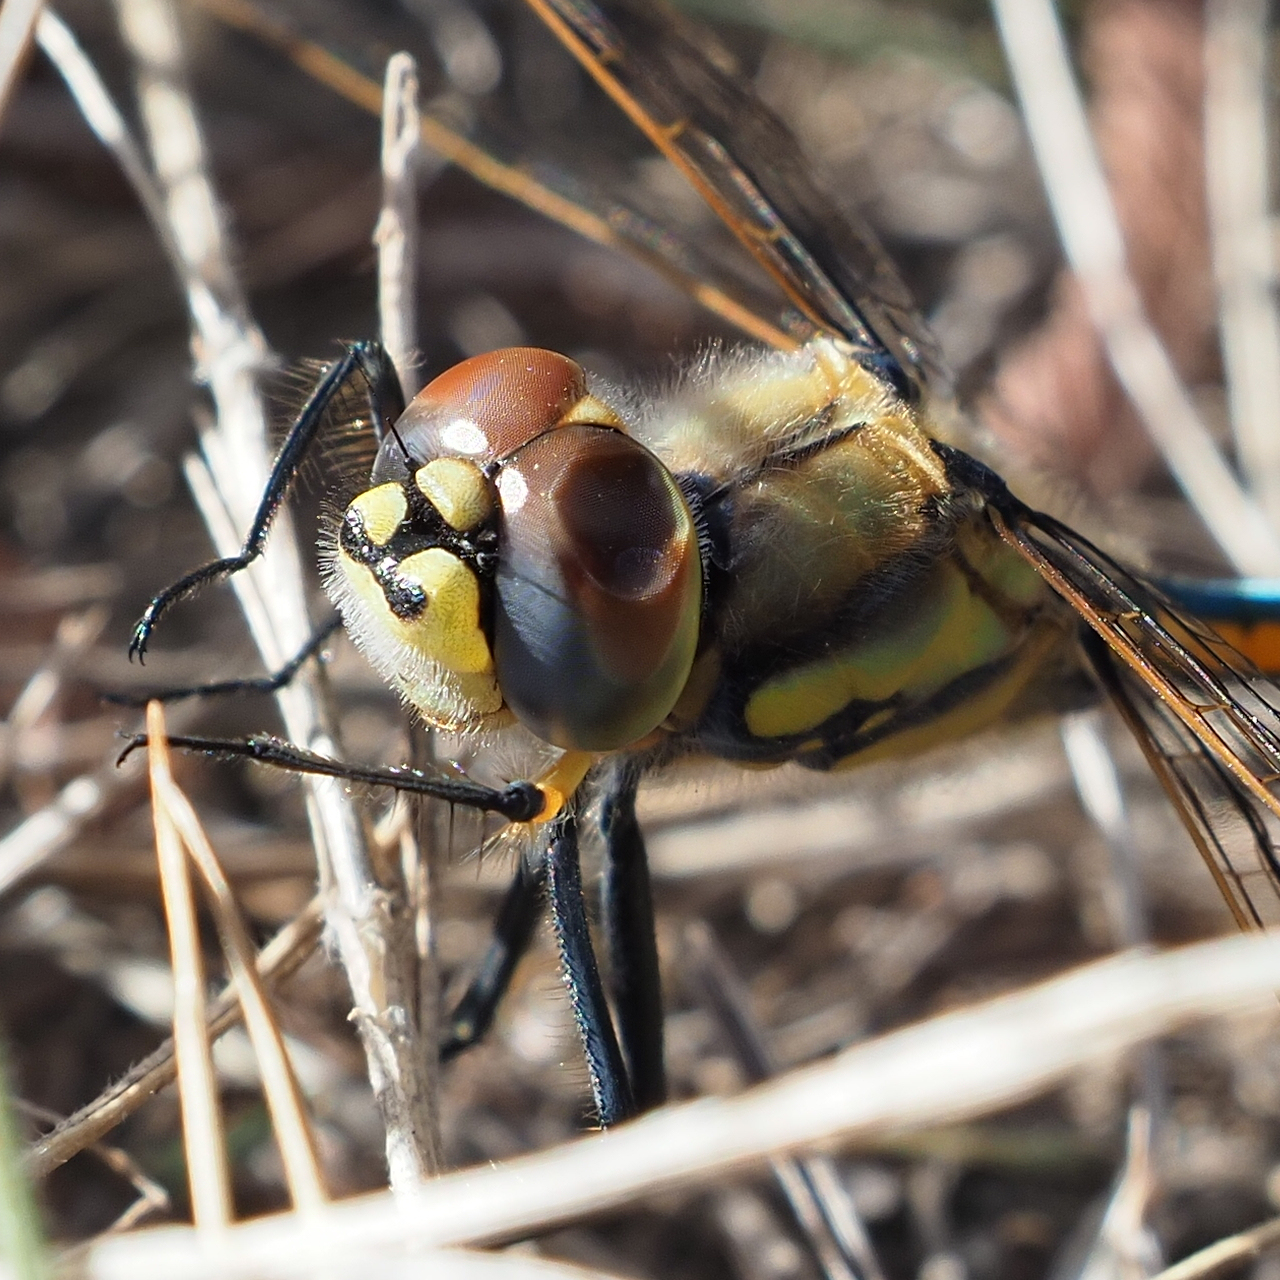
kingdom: Animalia
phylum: Arthropoda
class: Insecta
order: Odonata
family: Corduliidae
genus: Hemicordulia
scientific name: Hemicordulia tau
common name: Tau emerald
